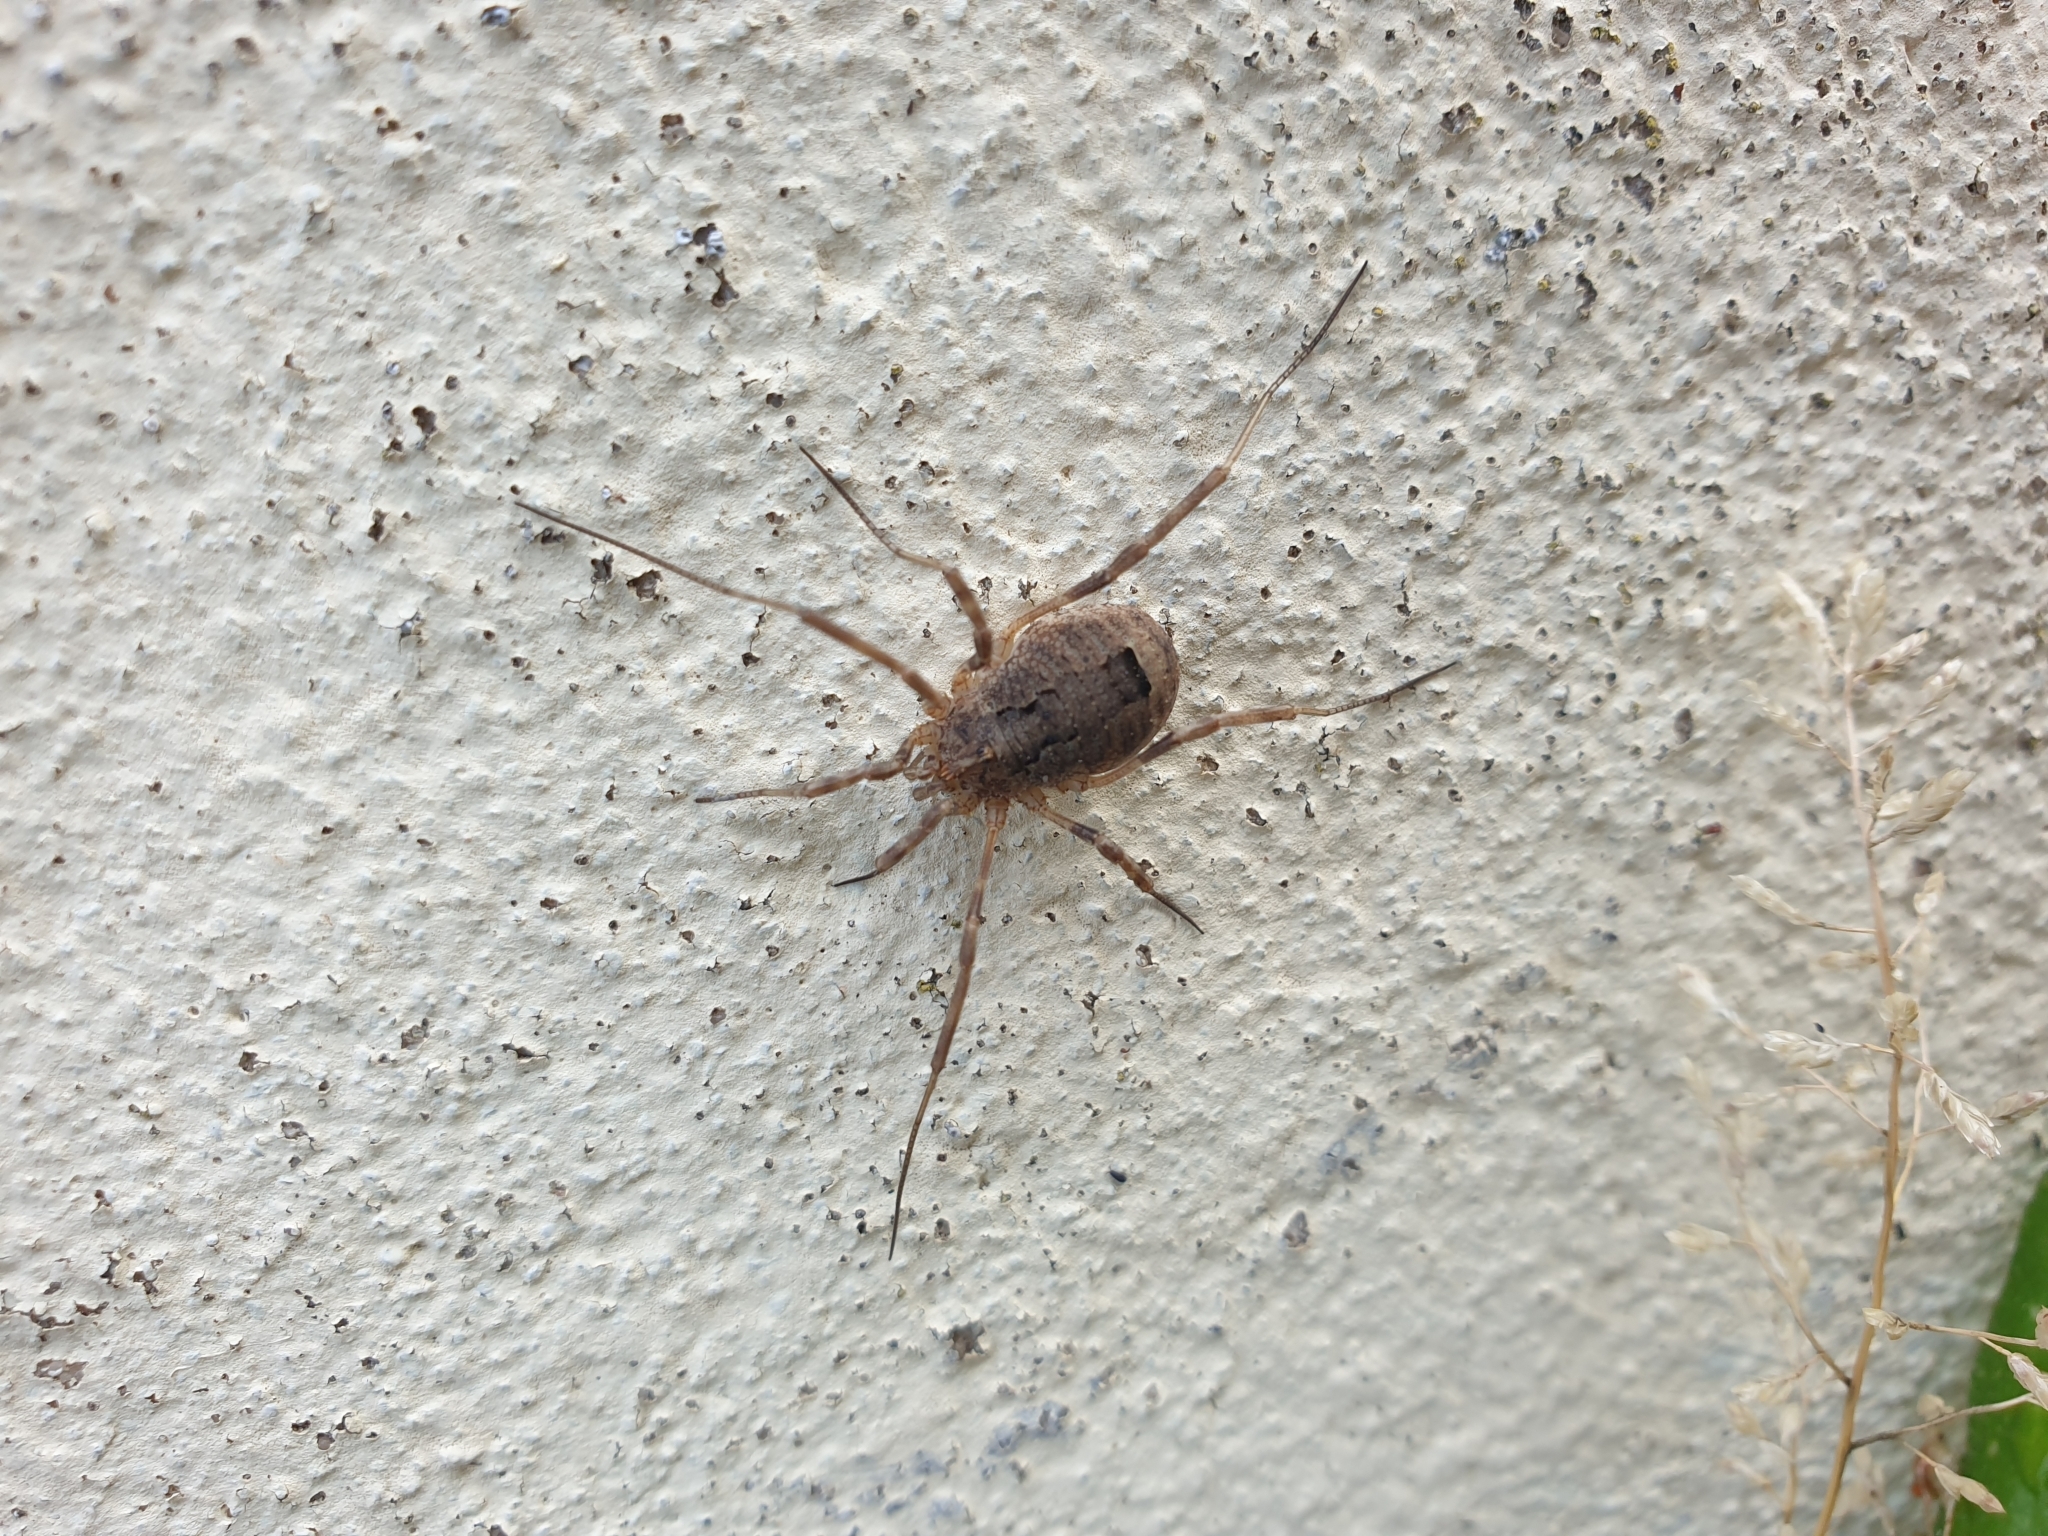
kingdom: Animalia
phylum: Arthropoda
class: Arachnida
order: Opiliones
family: Phalangiidae
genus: Odiellus
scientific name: Odiellus spinosus
